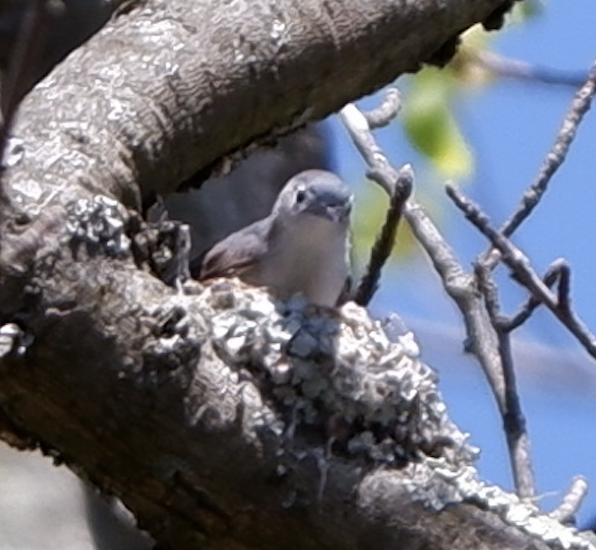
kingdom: Animalia
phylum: Chordata
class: Aves
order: Passeriformes
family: Polioptilidae
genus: Polioptila
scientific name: Polioptila caerulea
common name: Blue-gray gnatcatcher
